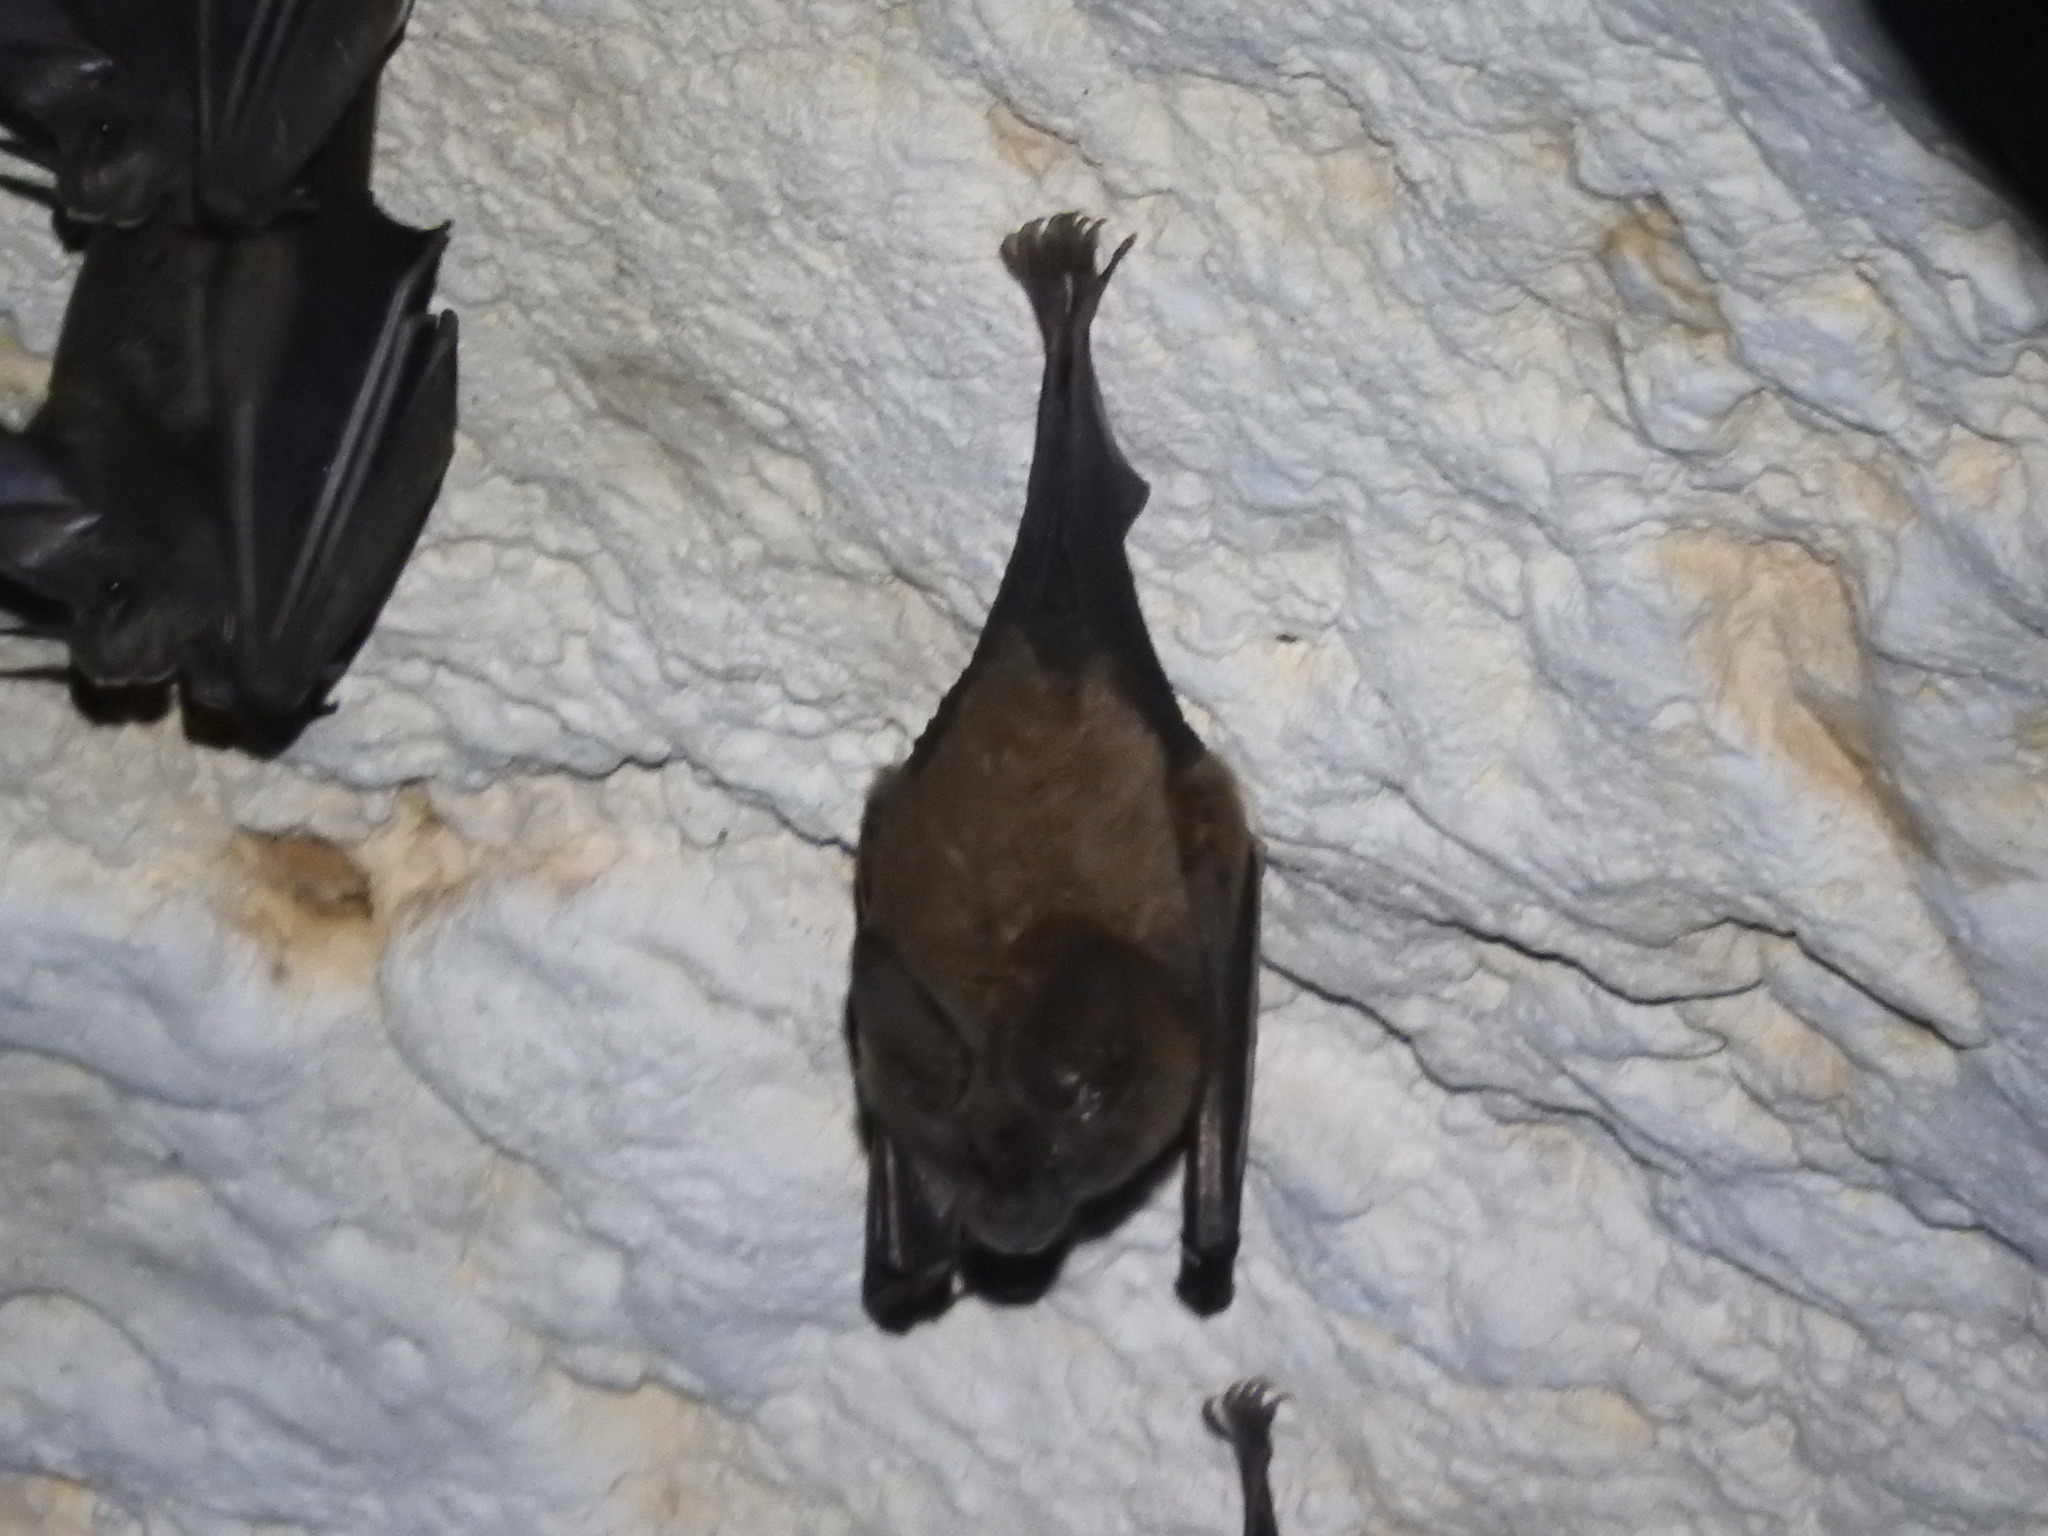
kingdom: Animalia
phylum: Chordata
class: Mammalia
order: Chiroptera
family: Phyllostomidae
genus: Mimon
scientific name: Mimon cozumelae
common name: Cozumelan golden bat
